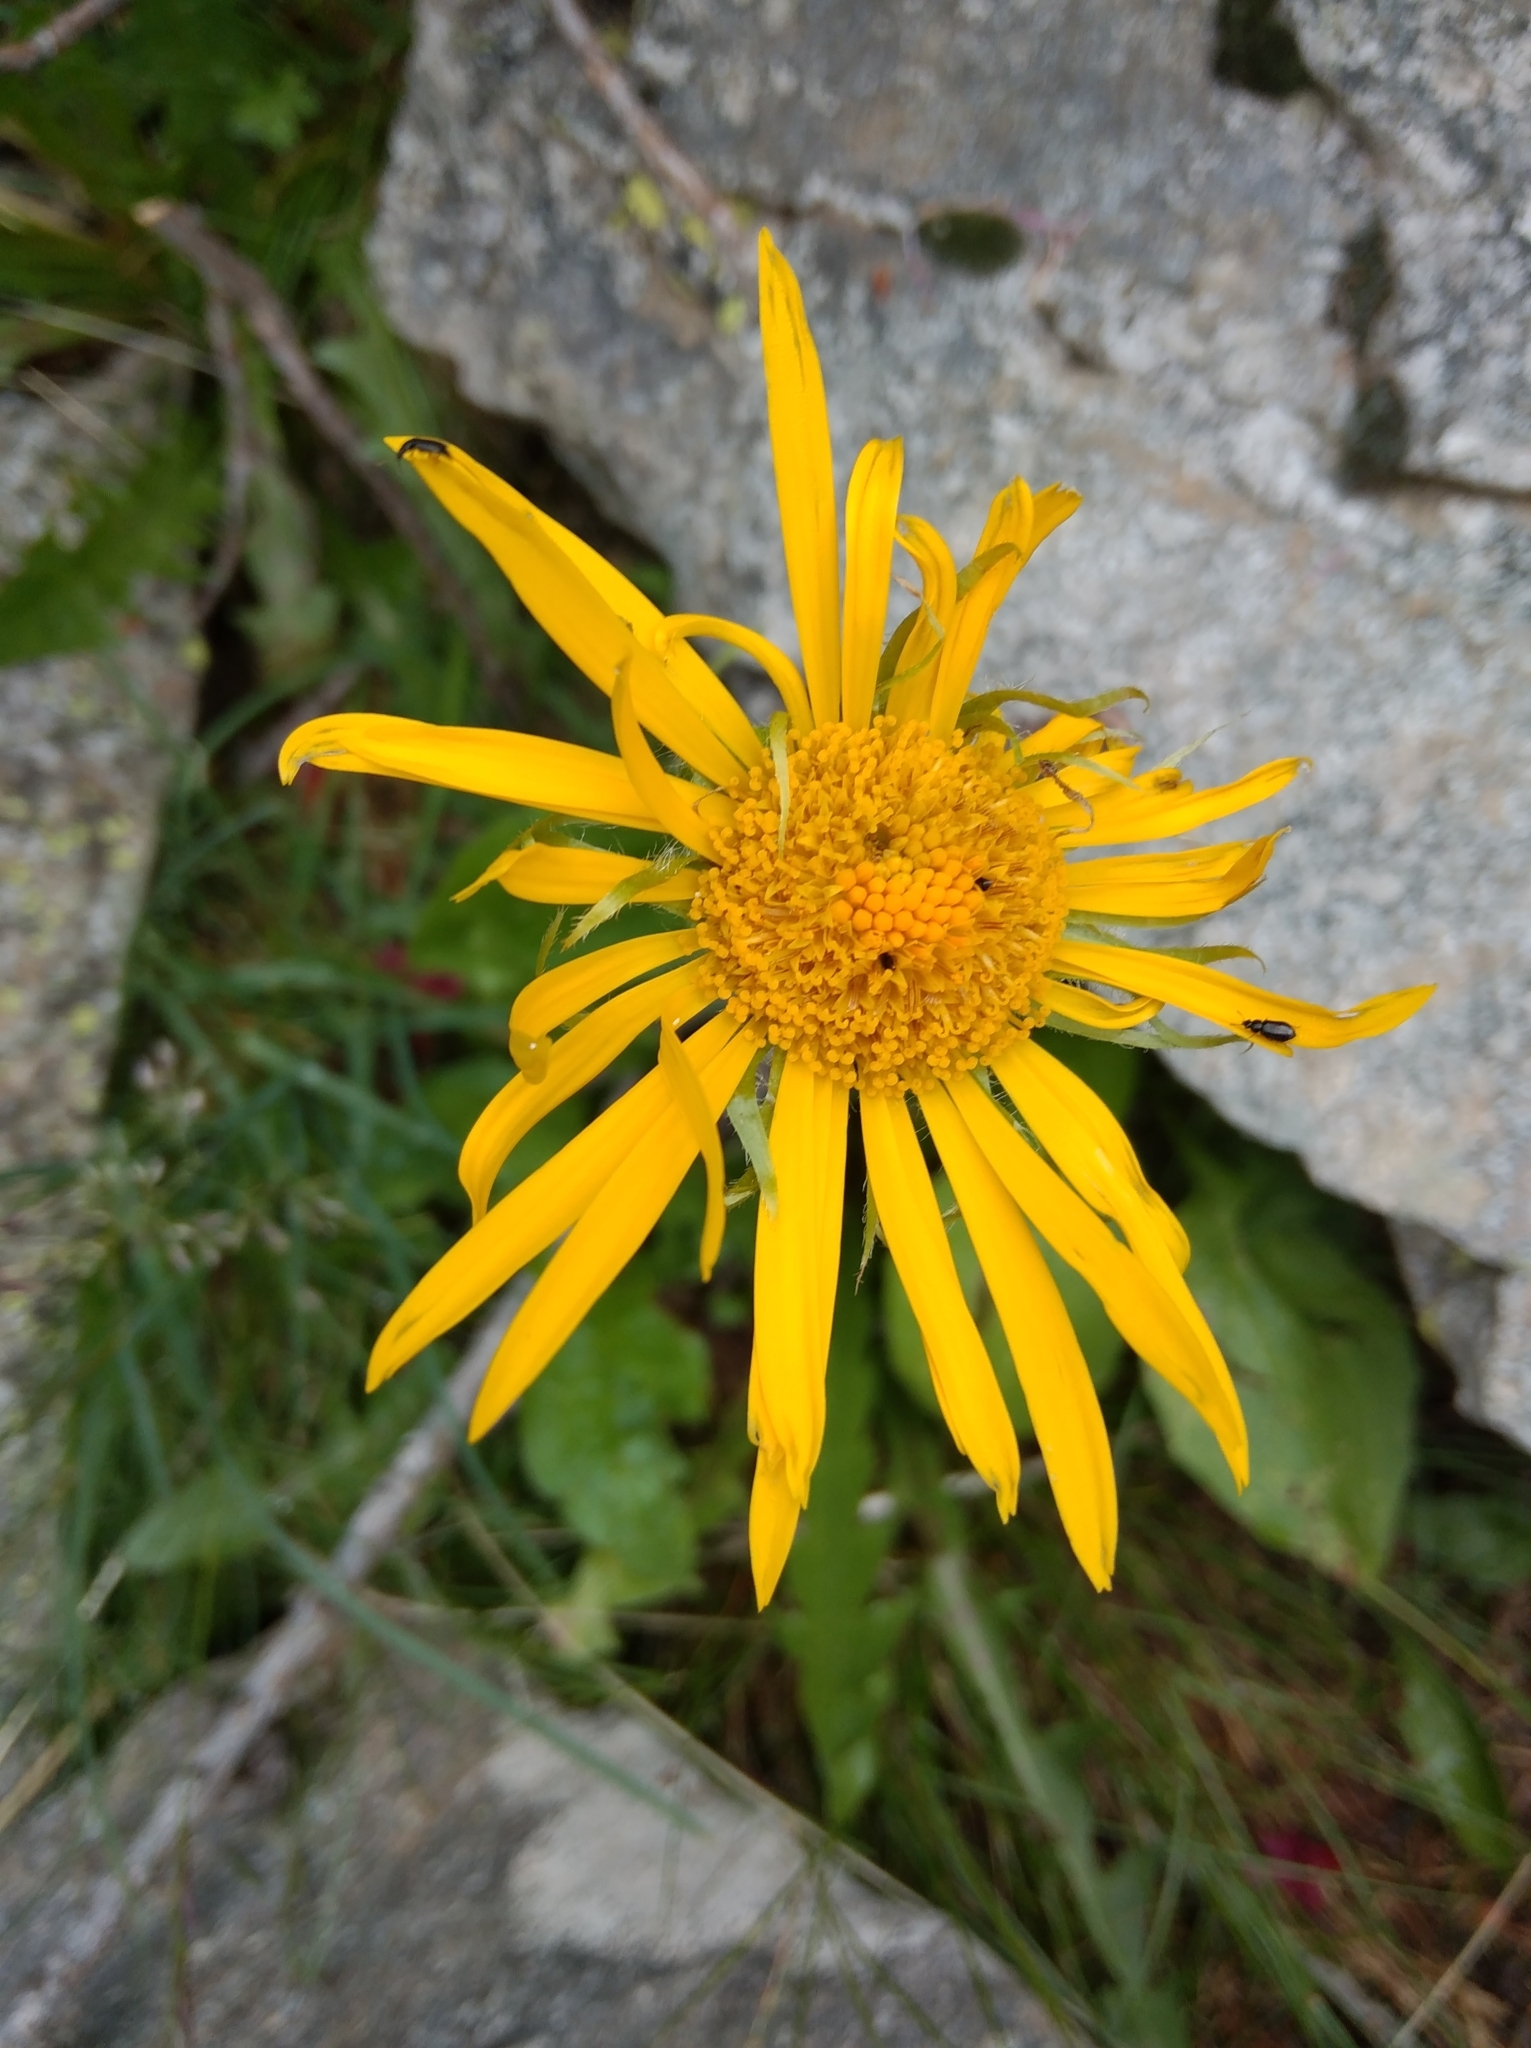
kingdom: Plantae
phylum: Tracheophyta
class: Magnoliopsida
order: Asterales
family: Asteraceae
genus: Arnica
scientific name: Arnica montana
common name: Leopard's bane
